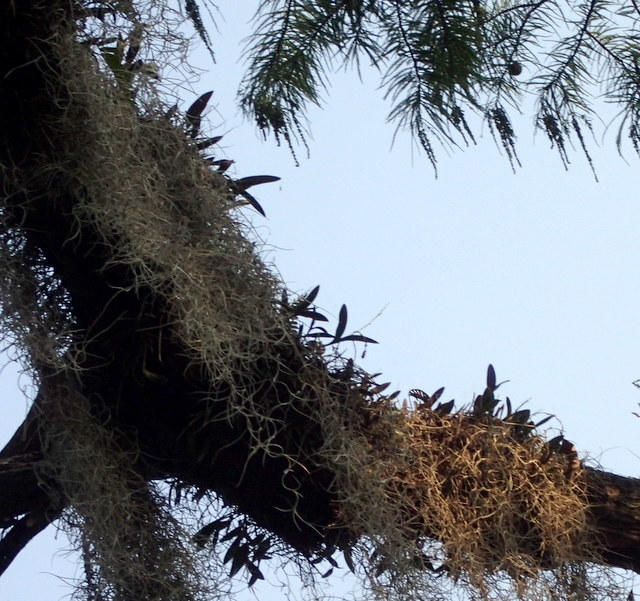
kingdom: Plantae
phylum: Tracheophyta
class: Liliopsida
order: Asparagales
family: Orchidaceae
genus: Epidendrum
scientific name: Epidendrum conopseum
